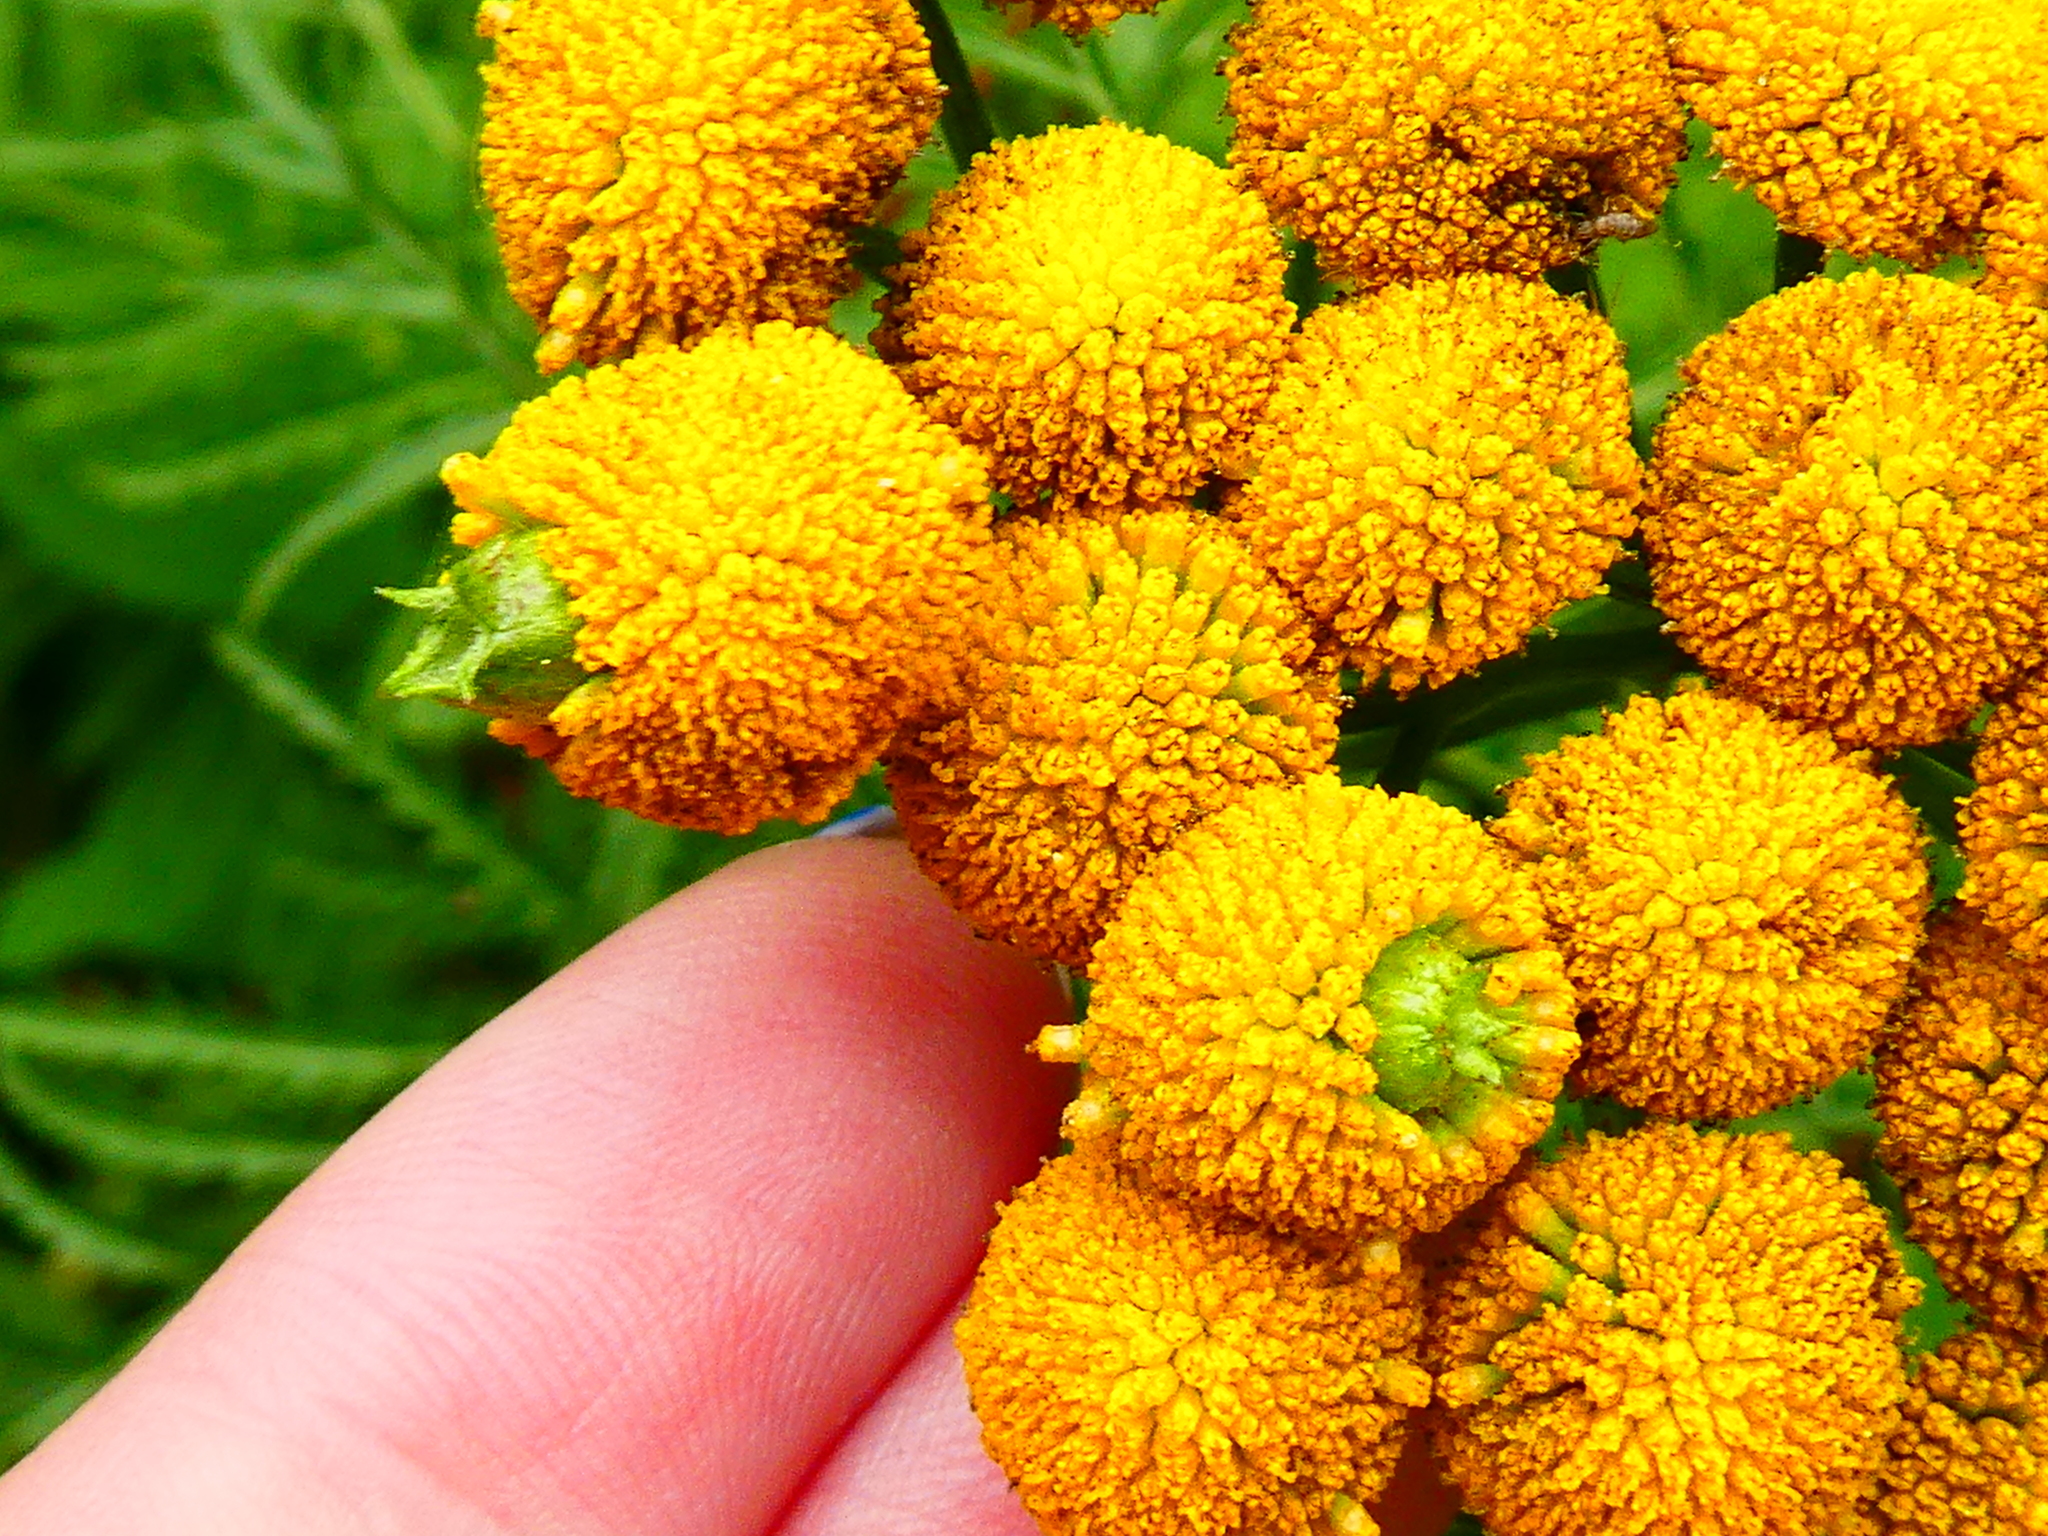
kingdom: Animalia
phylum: Arthropoda
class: Insecta
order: Diptera
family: Cecidomyiidae
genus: Rhopalomyia
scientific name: Rhopalomyia tanaceticolus
